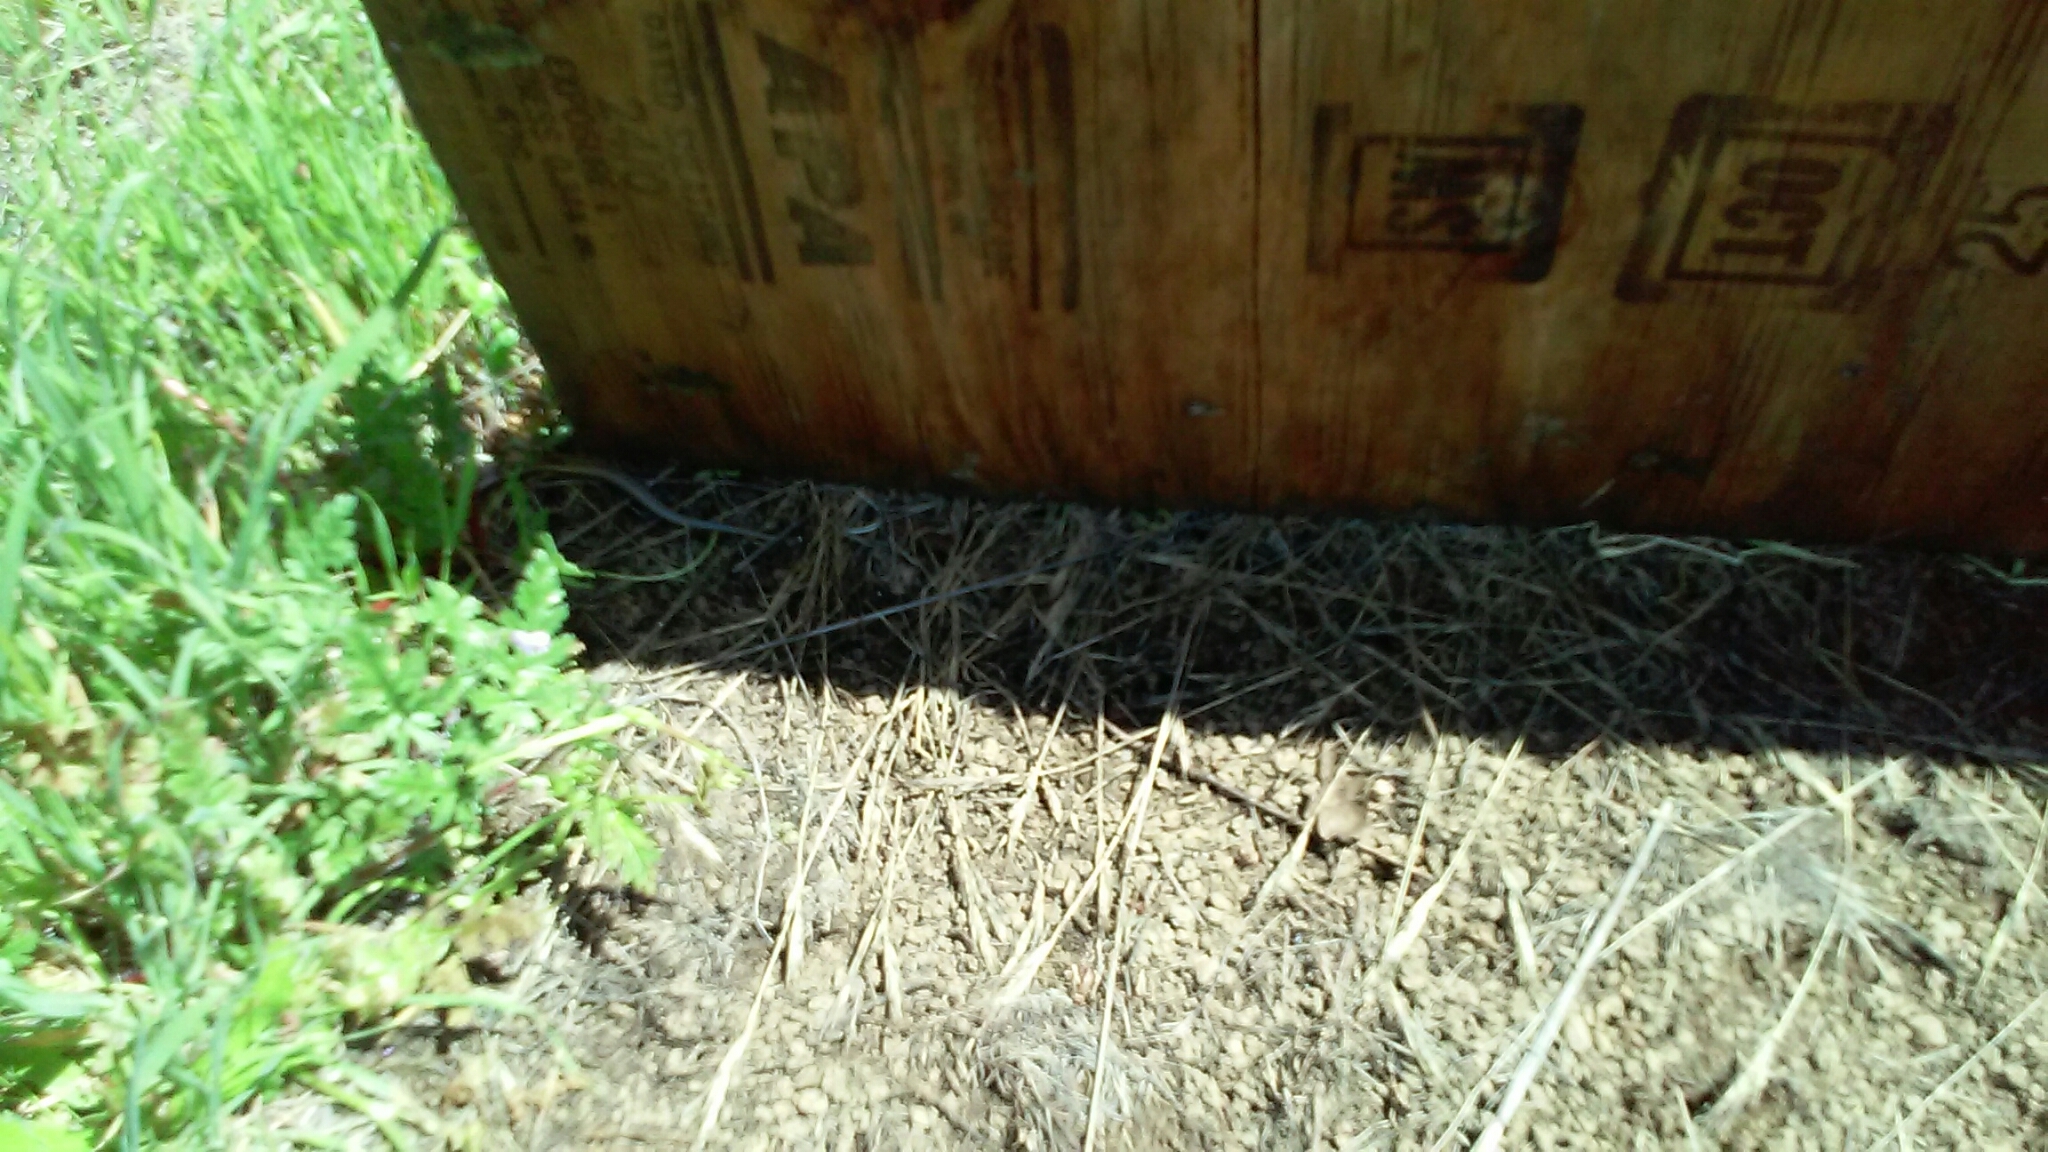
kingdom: Animalia
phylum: Chordata
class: Squamata
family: Scincidae
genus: Plestiodon
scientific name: Plestiodon skiltonianus
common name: Coronado island skink [interparietalis]
